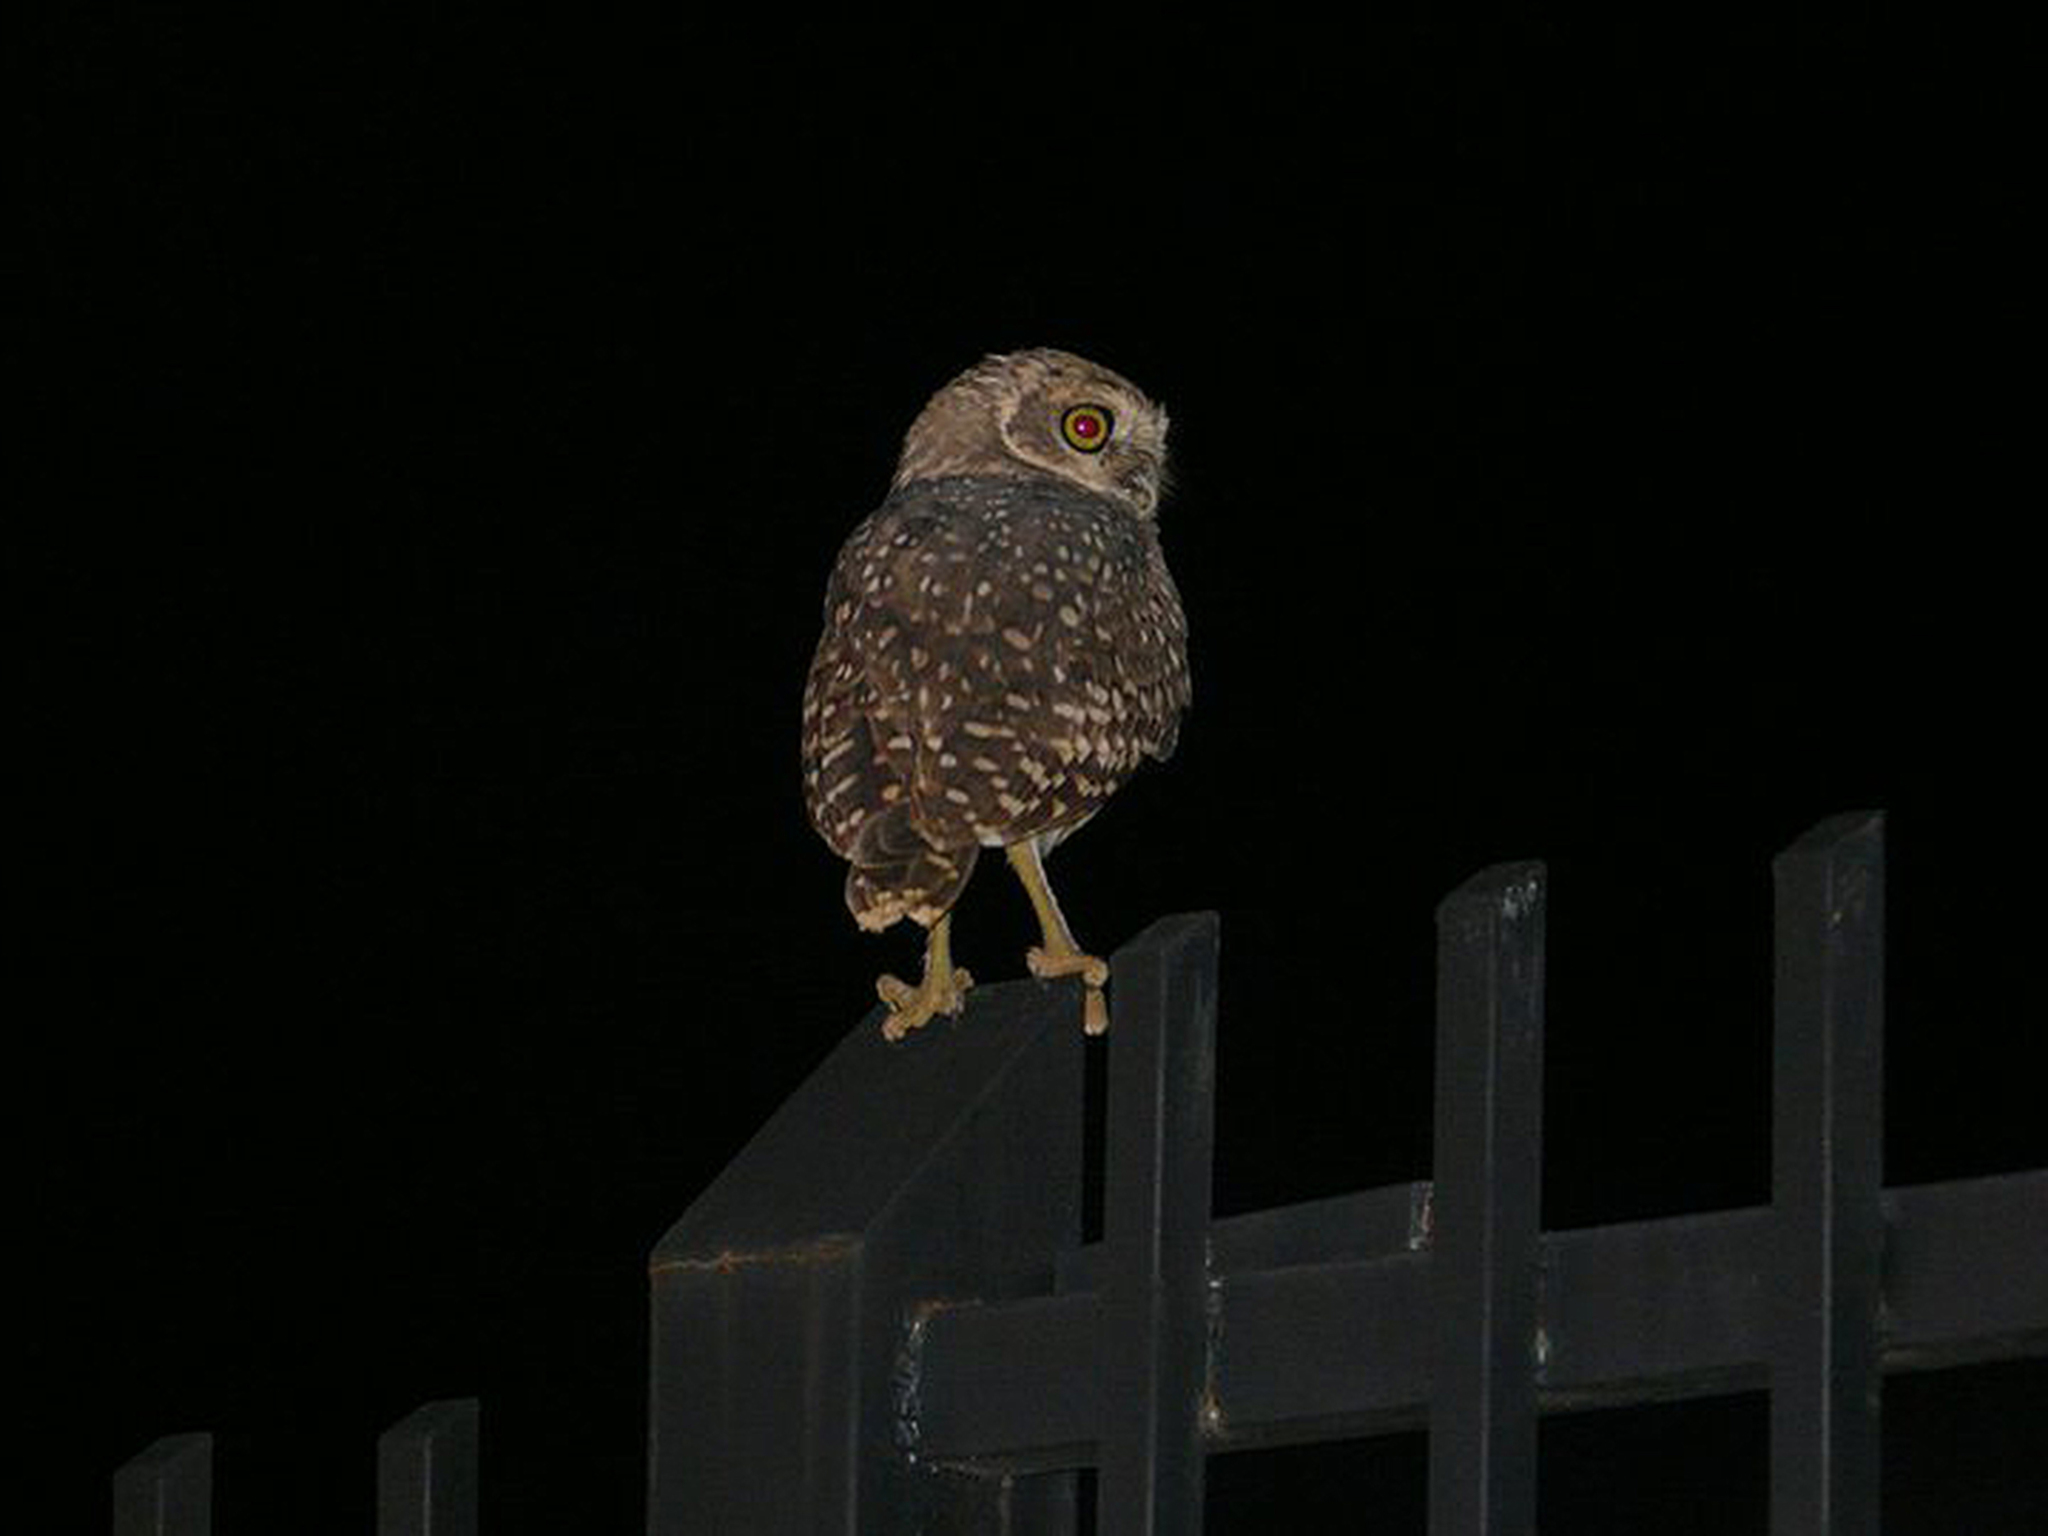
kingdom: Animalia
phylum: Chordata
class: Aves
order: Strigiformes
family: Strigidae
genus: Athene
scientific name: Athene cunicularia
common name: Burrowing owl
